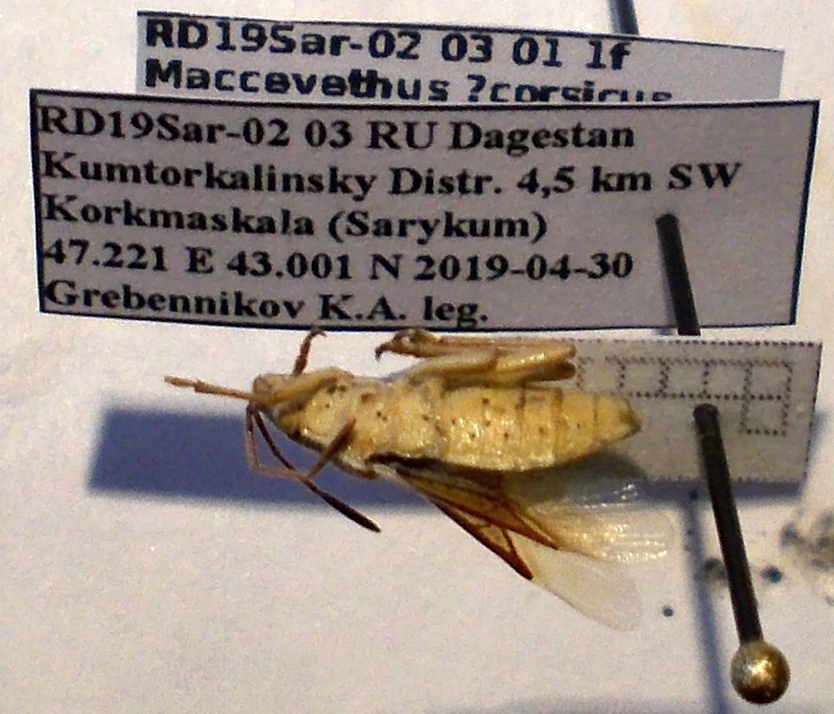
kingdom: Animalia
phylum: Arthropoda
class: Insecta
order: Hemiptera
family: Rhopalidae
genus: Maccevethus
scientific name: Maccevethus corsicus
